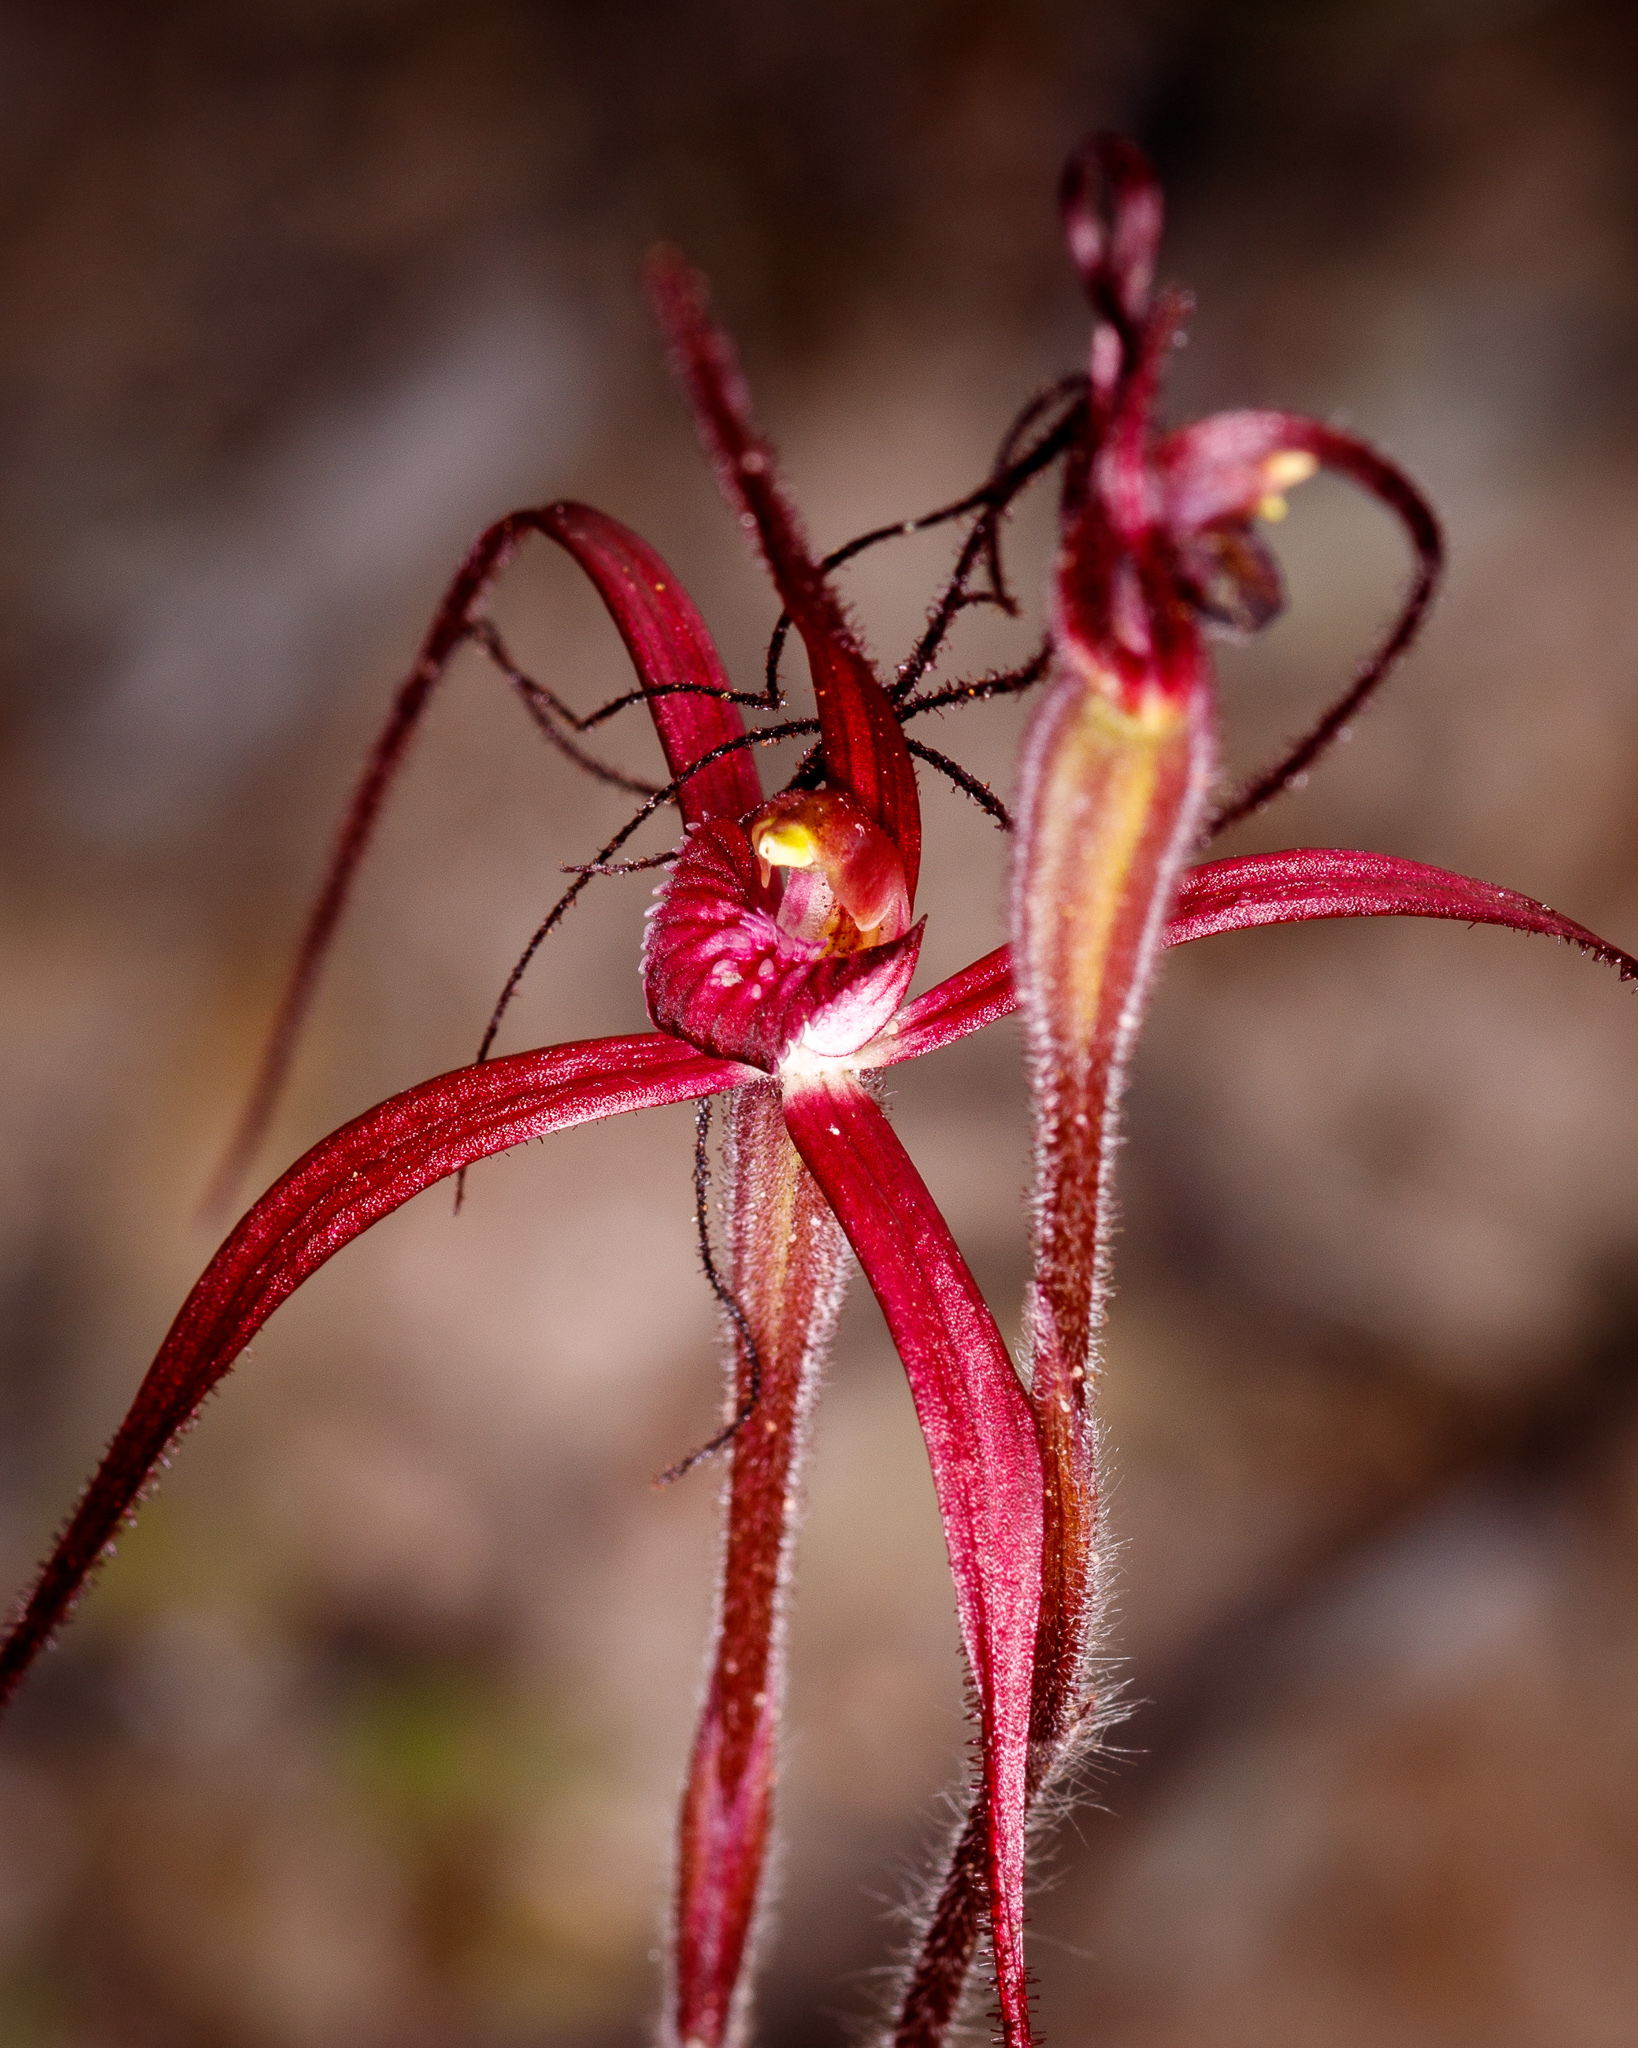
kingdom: Plantae
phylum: Tracheophyta
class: Liliopsida
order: Asparagales
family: Orchidaceae
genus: Caladenia
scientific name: Caladenia dundasiae
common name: Dunda's spider orchid
